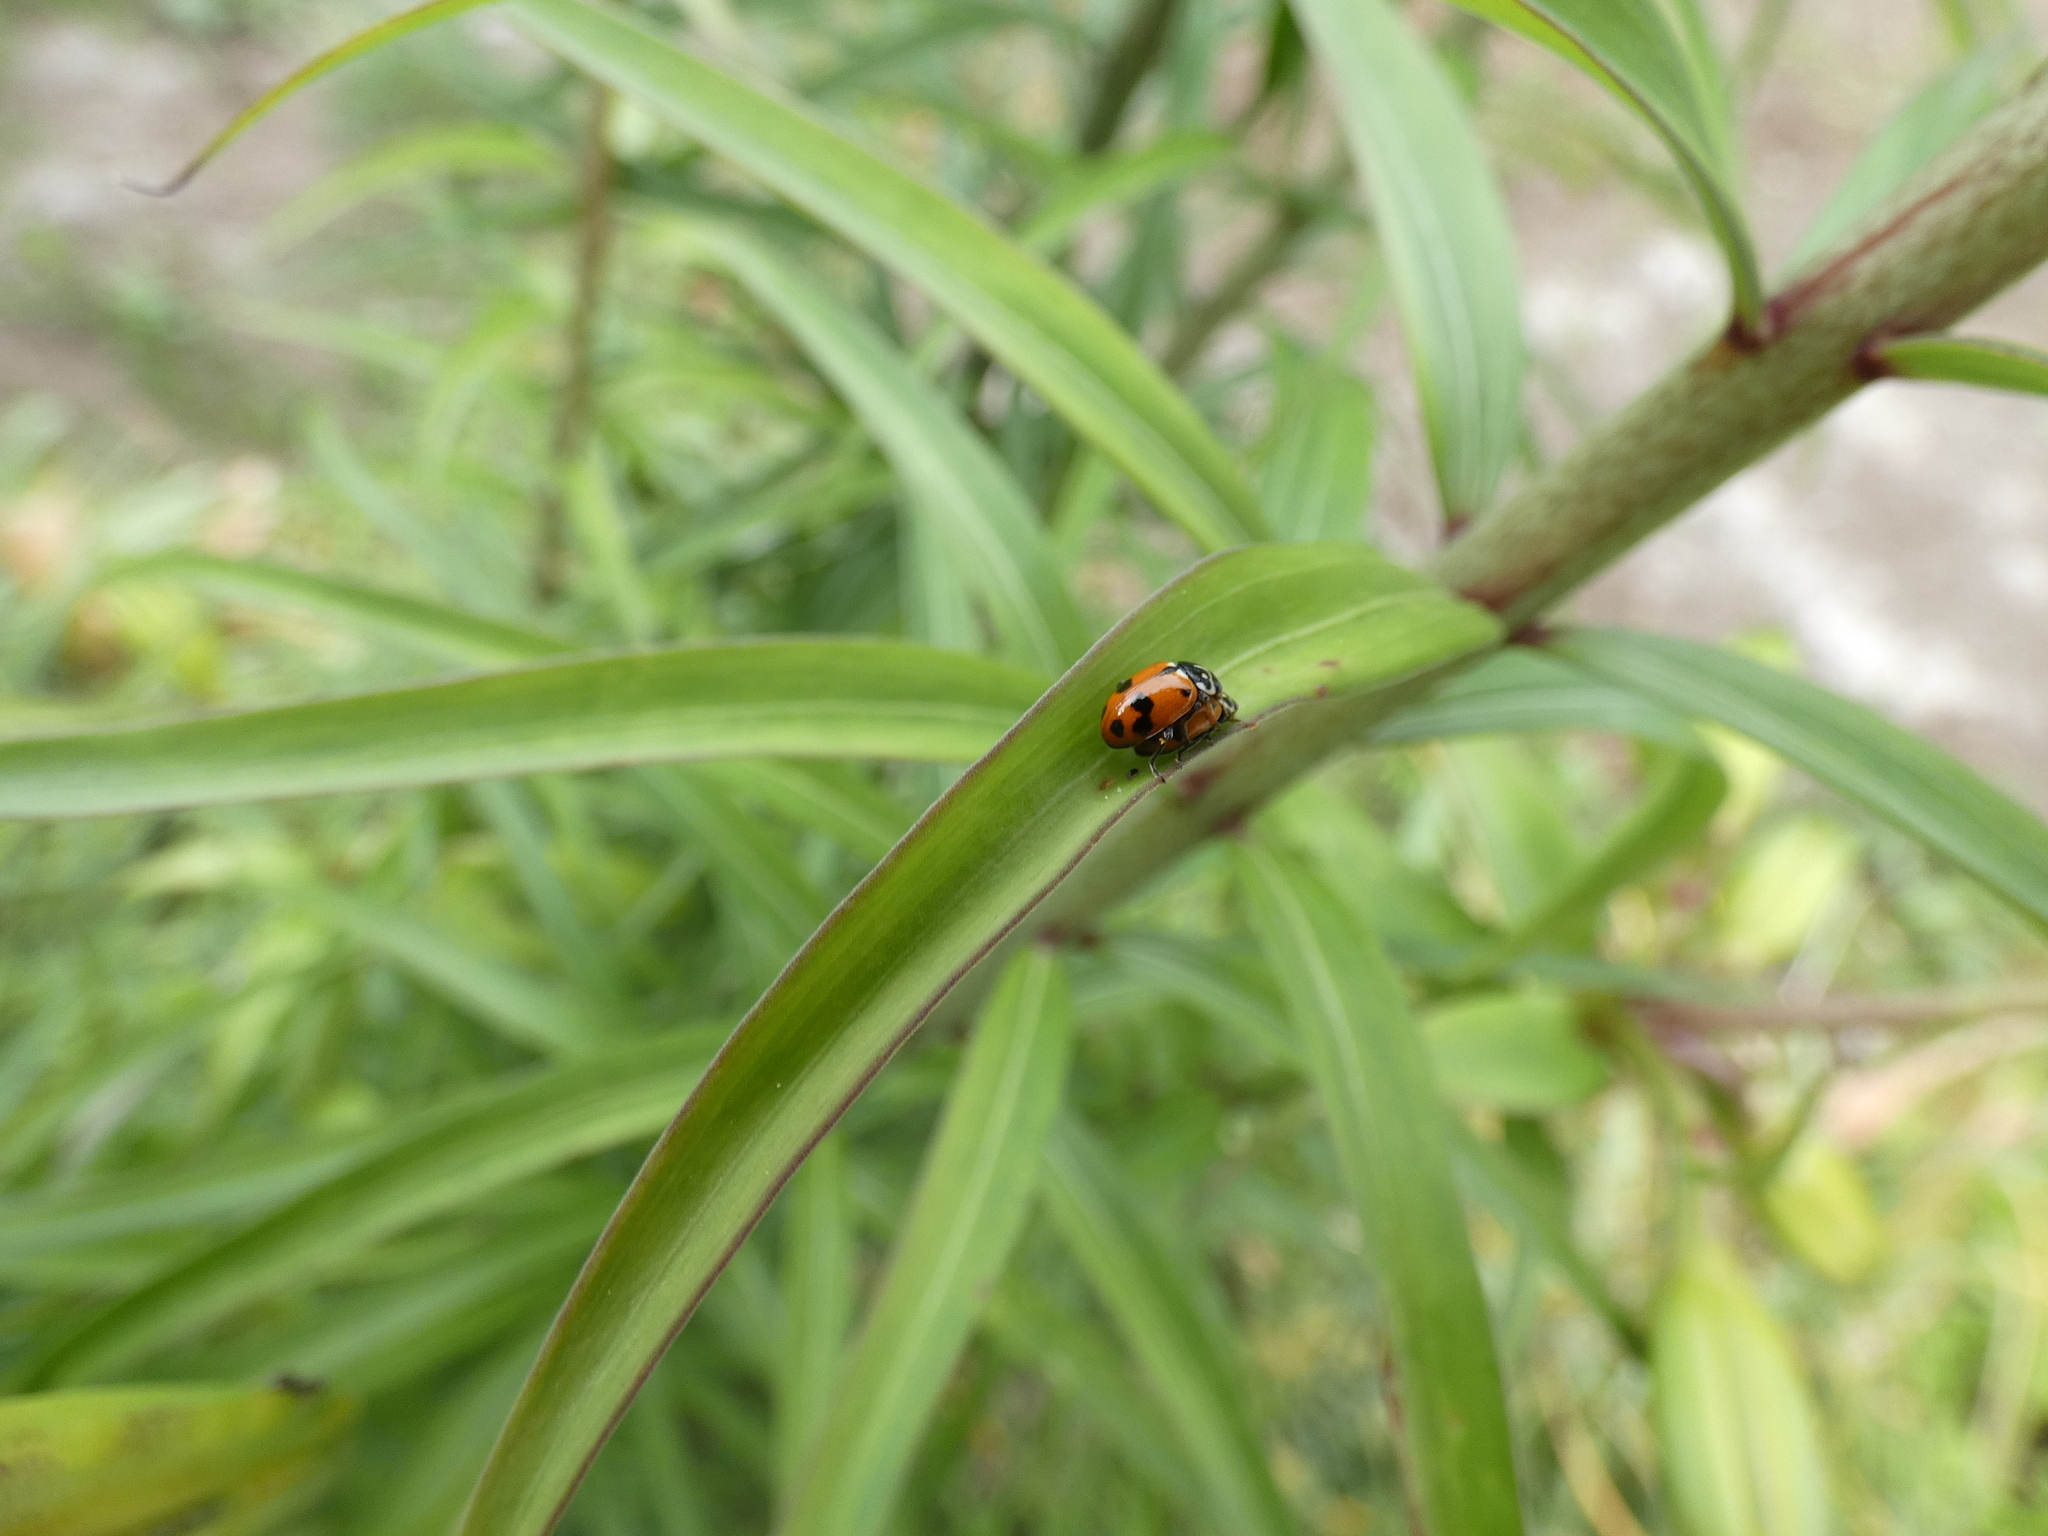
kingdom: Animalia
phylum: Arthropoda
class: Insecta
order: Coleoptera
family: Coccinellidae
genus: Hippodamia
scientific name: Hippodamia variegata
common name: Ladybird beetle
